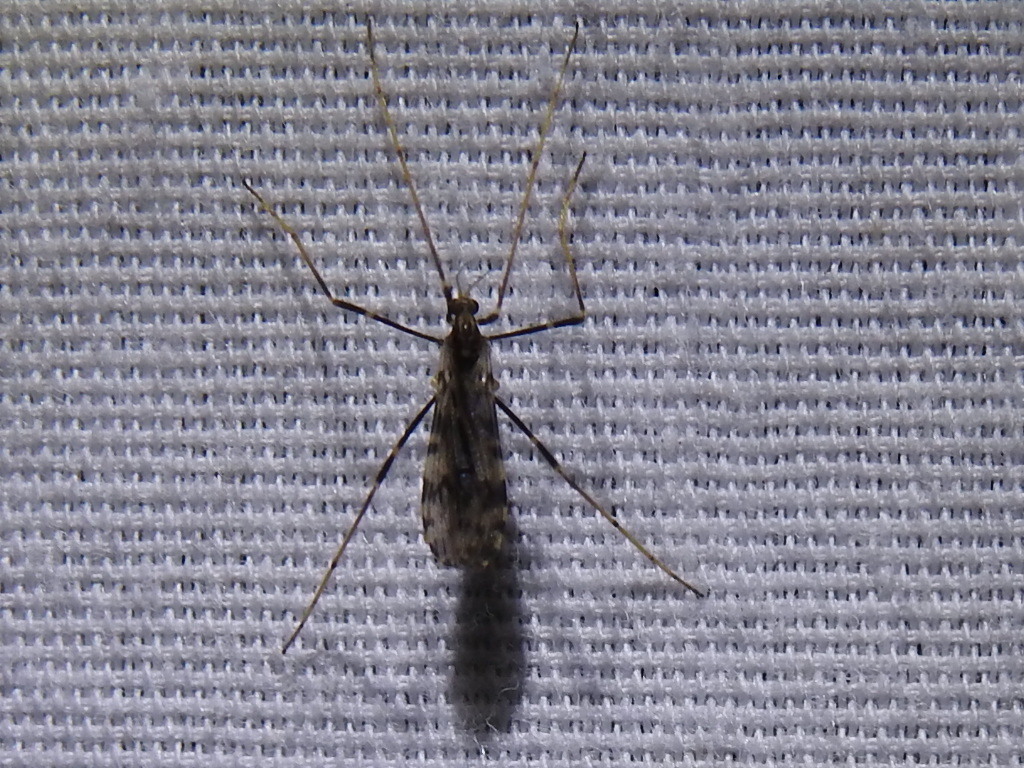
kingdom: Animalia
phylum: Arthropoda
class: Insecta
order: Diptera
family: Limoniidae
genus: Ilisia
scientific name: Ilisia graphica
